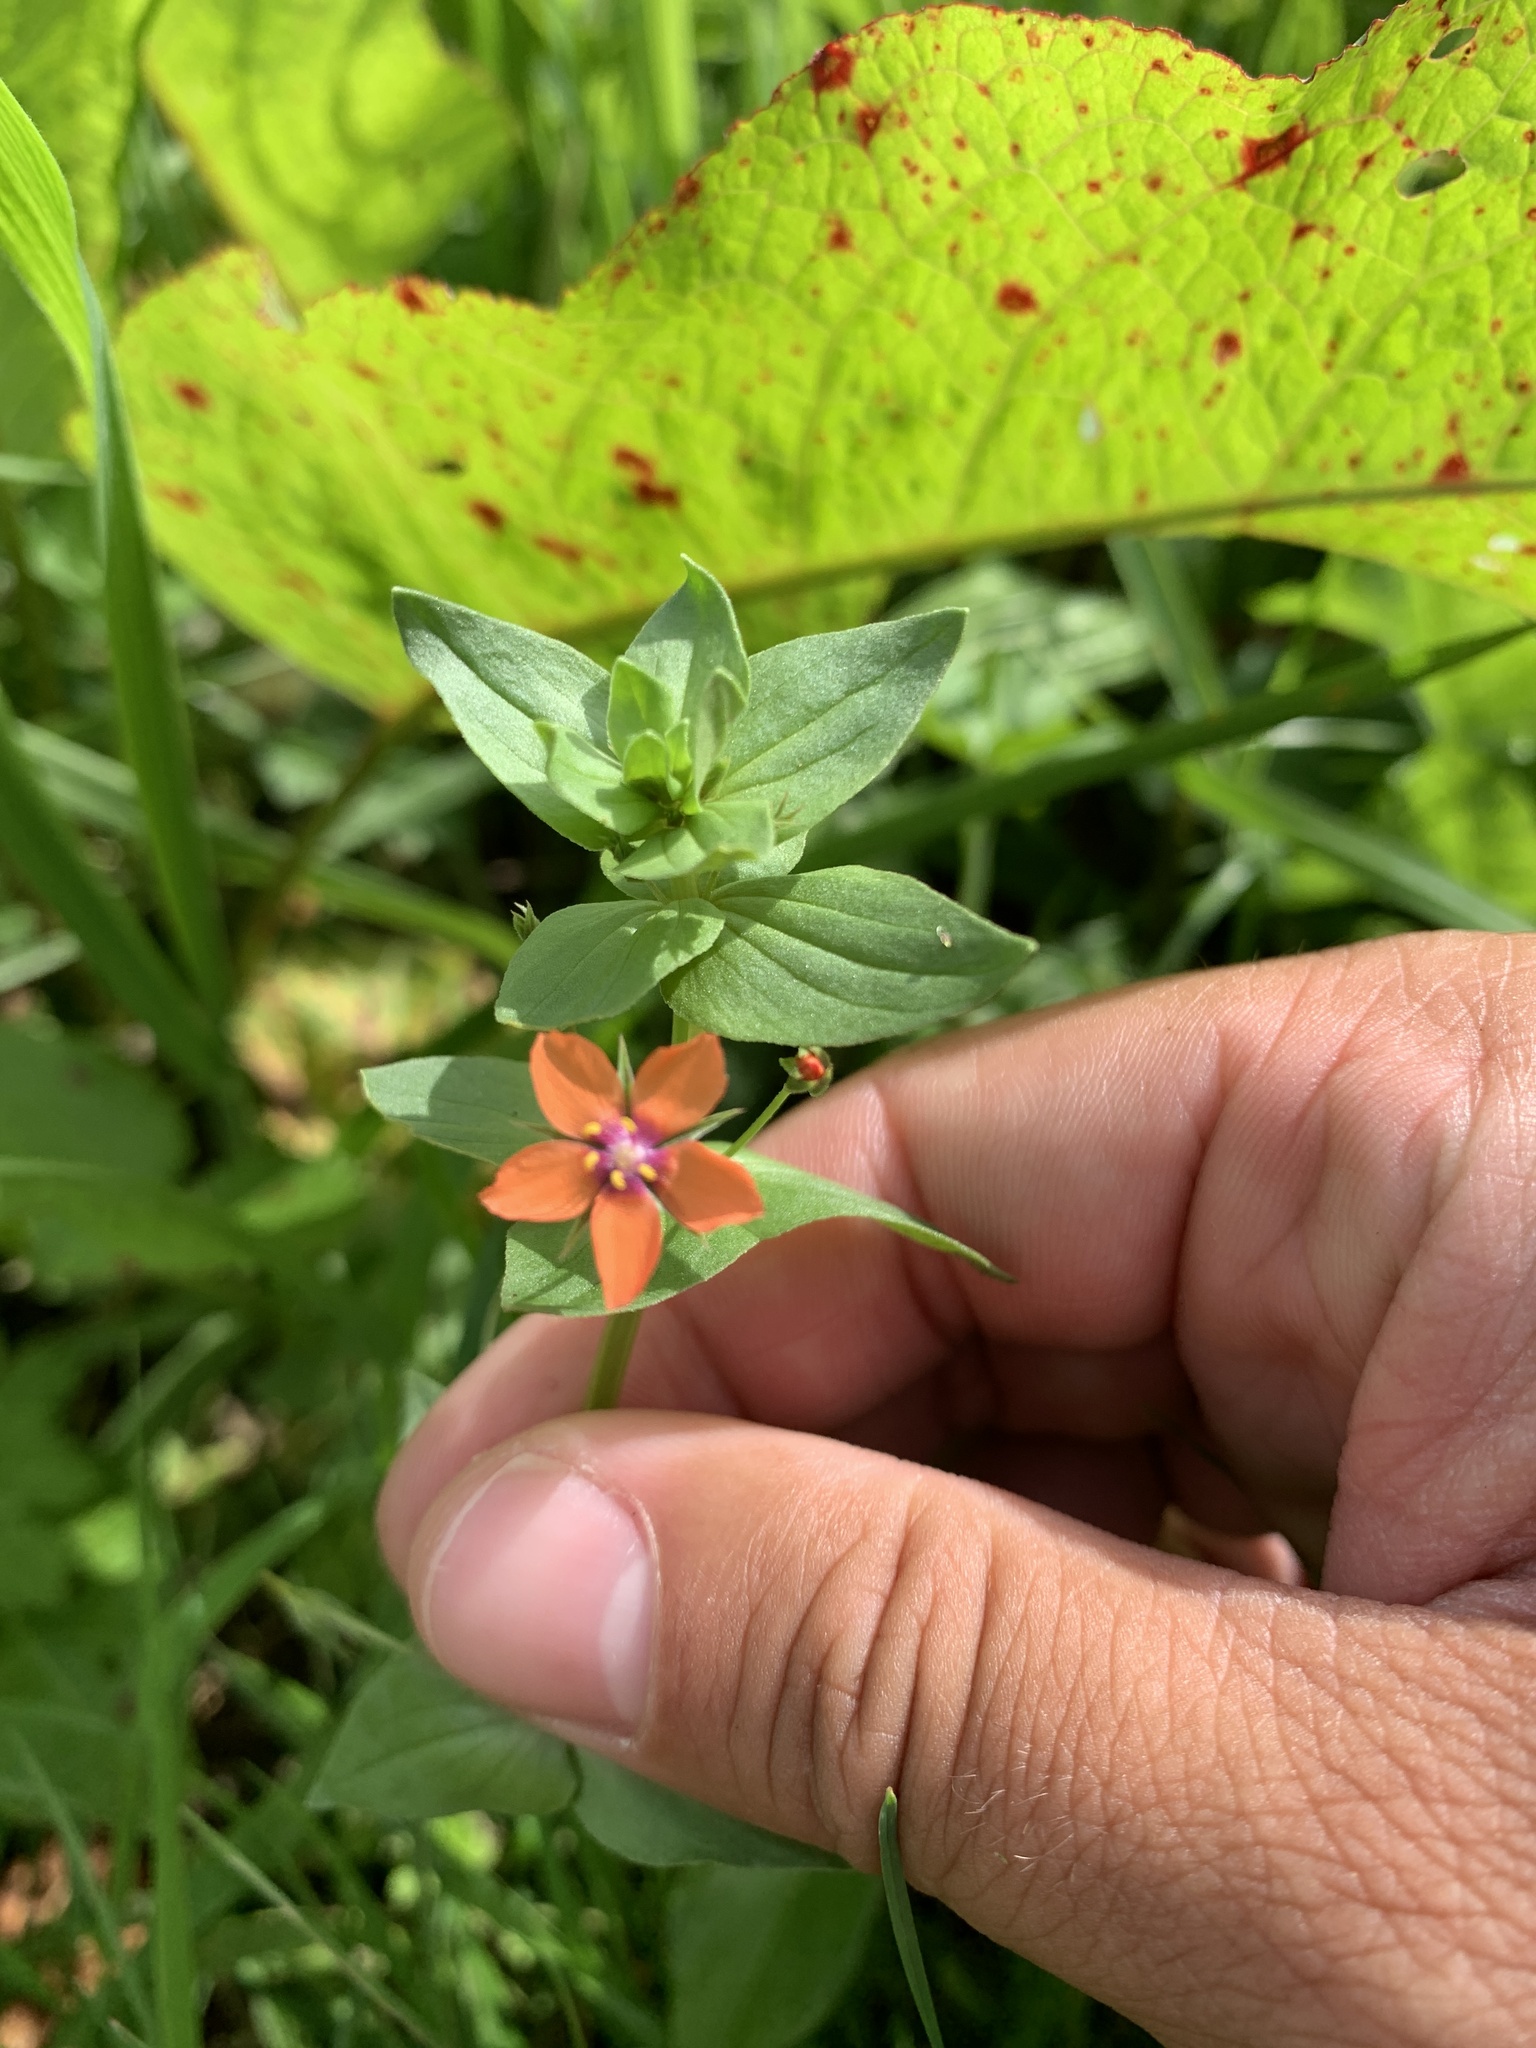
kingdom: Plantae
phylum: Tracheophyta
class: Magnoliopsida
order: Ericales
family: Primulaceae
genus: Lysimachia
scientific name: Lysimachia arvensis
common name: Scarlet pimpernel
